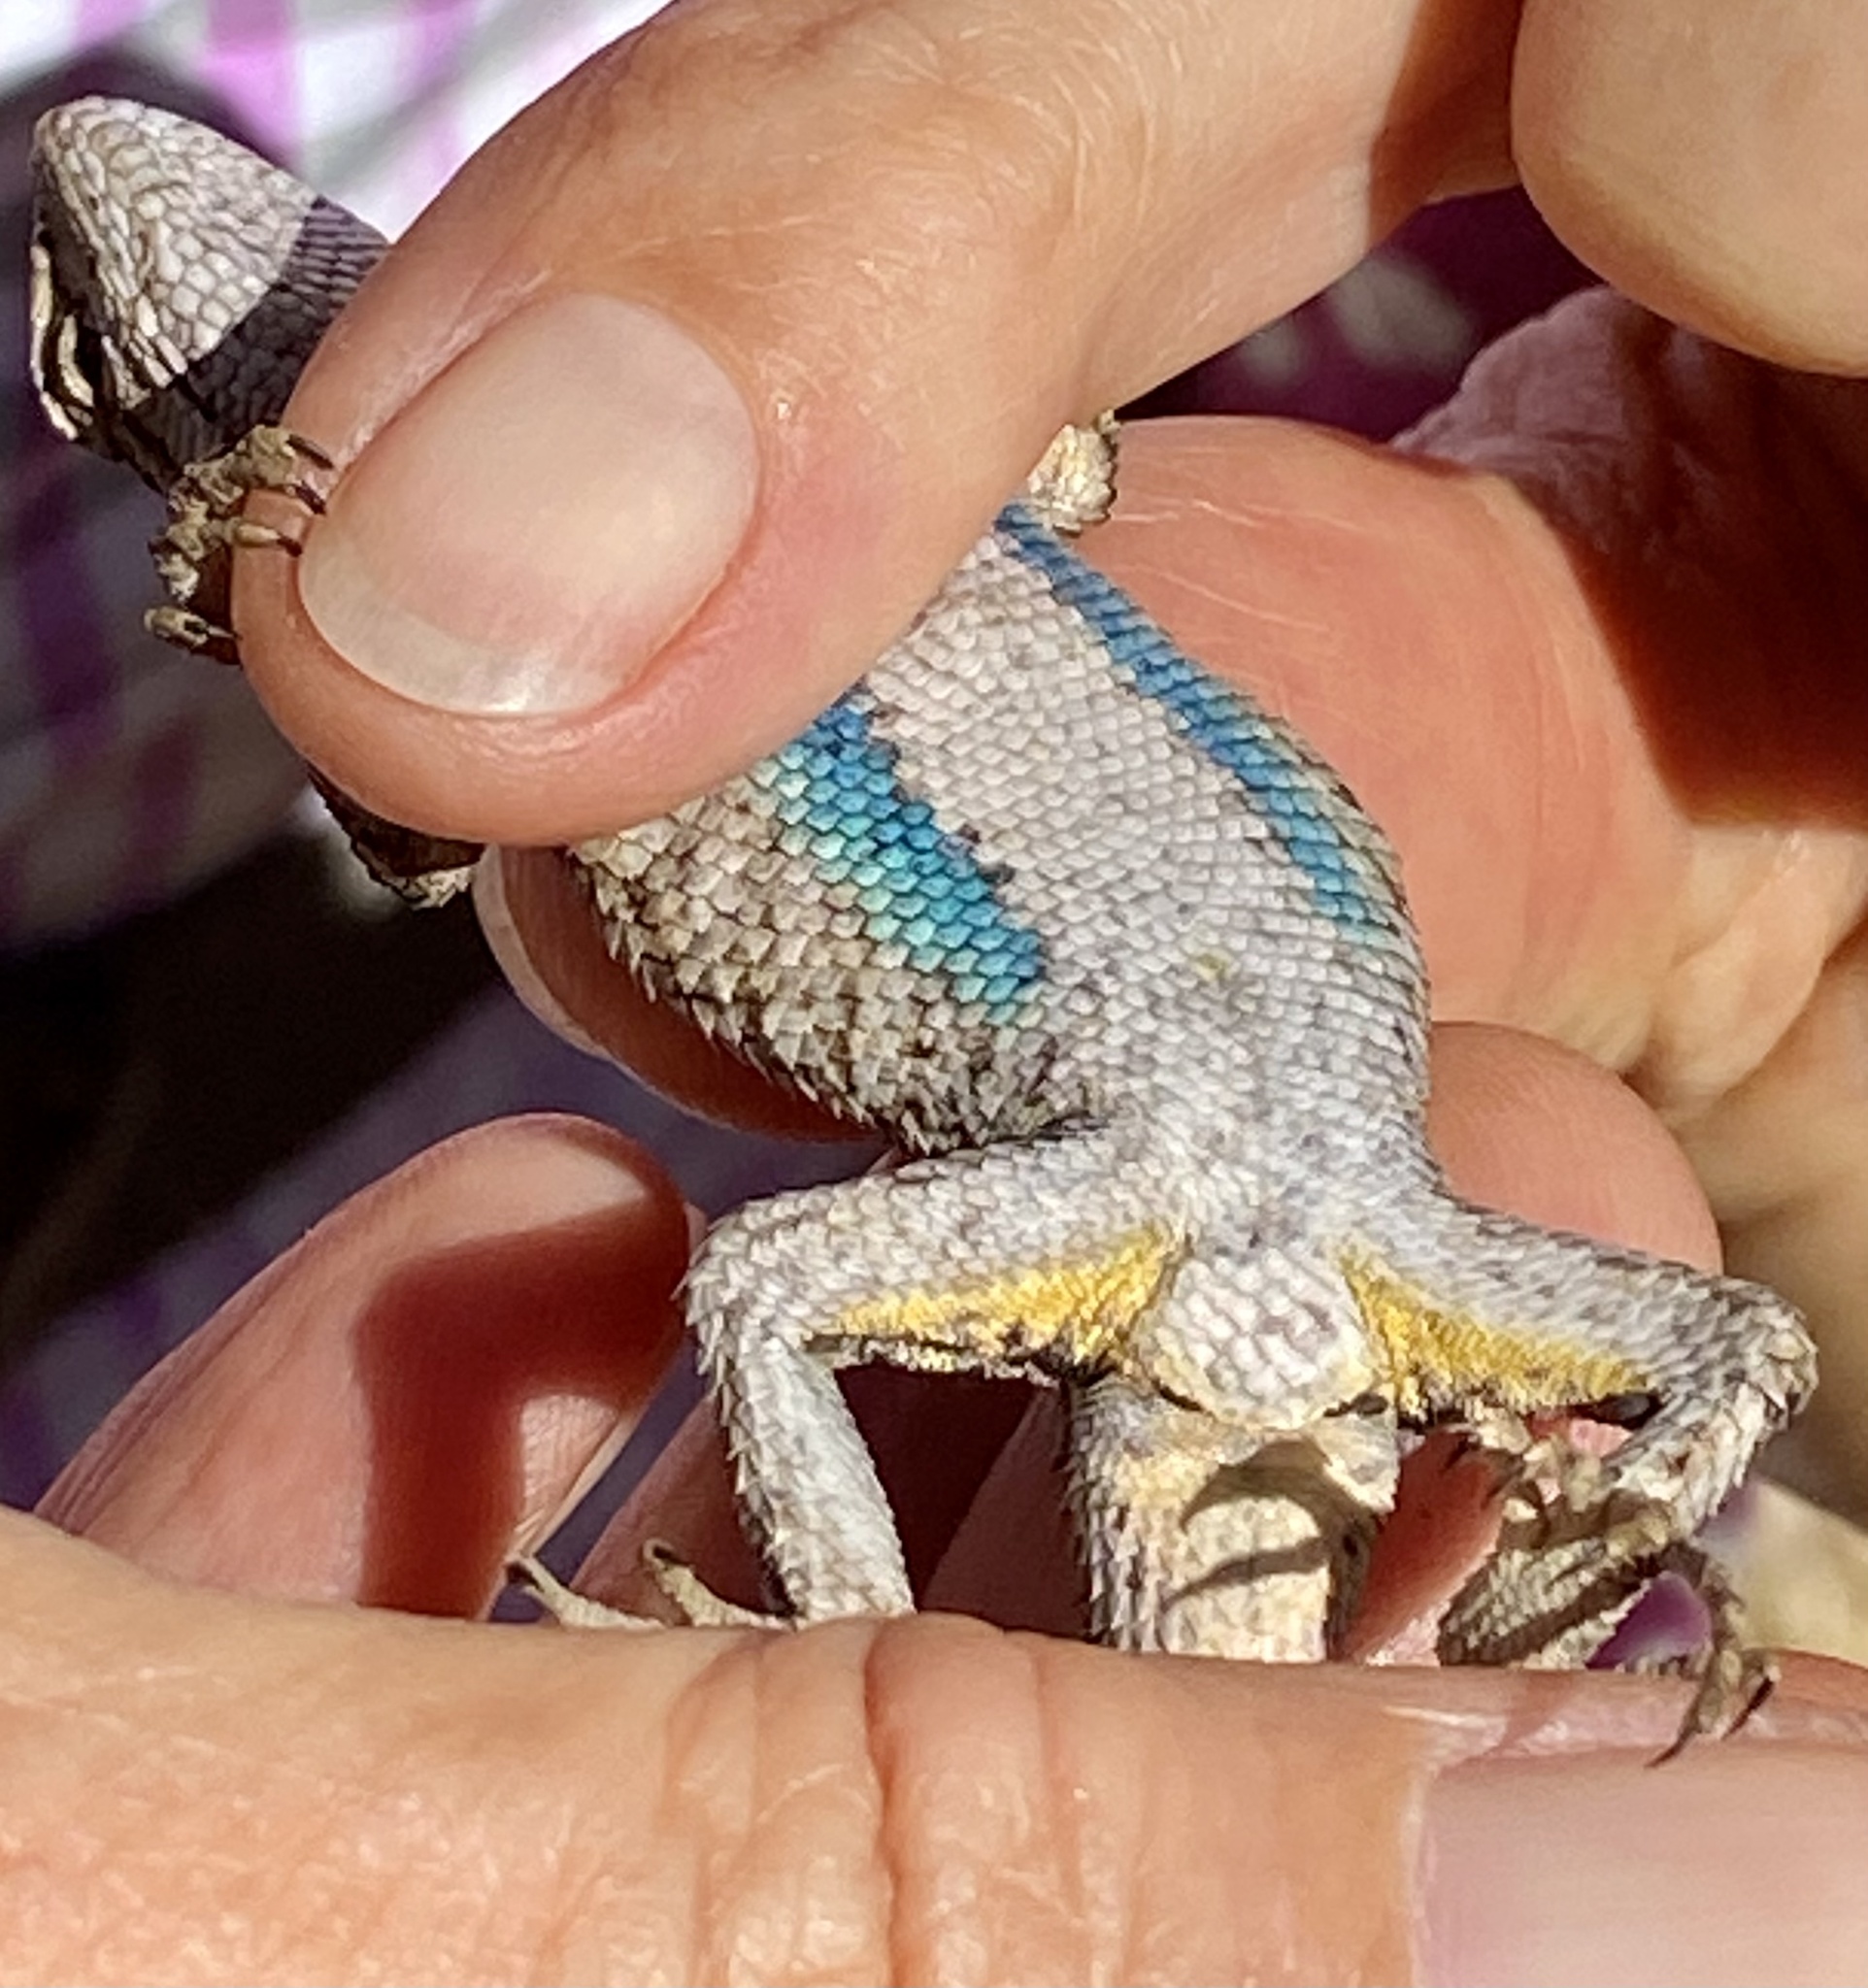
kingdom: Animalia
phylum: Chordata
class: Squamata
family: Phrynosomatidae
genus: Sceloporus
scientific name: Sceloporus occidentalis
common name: Western fence lizard
